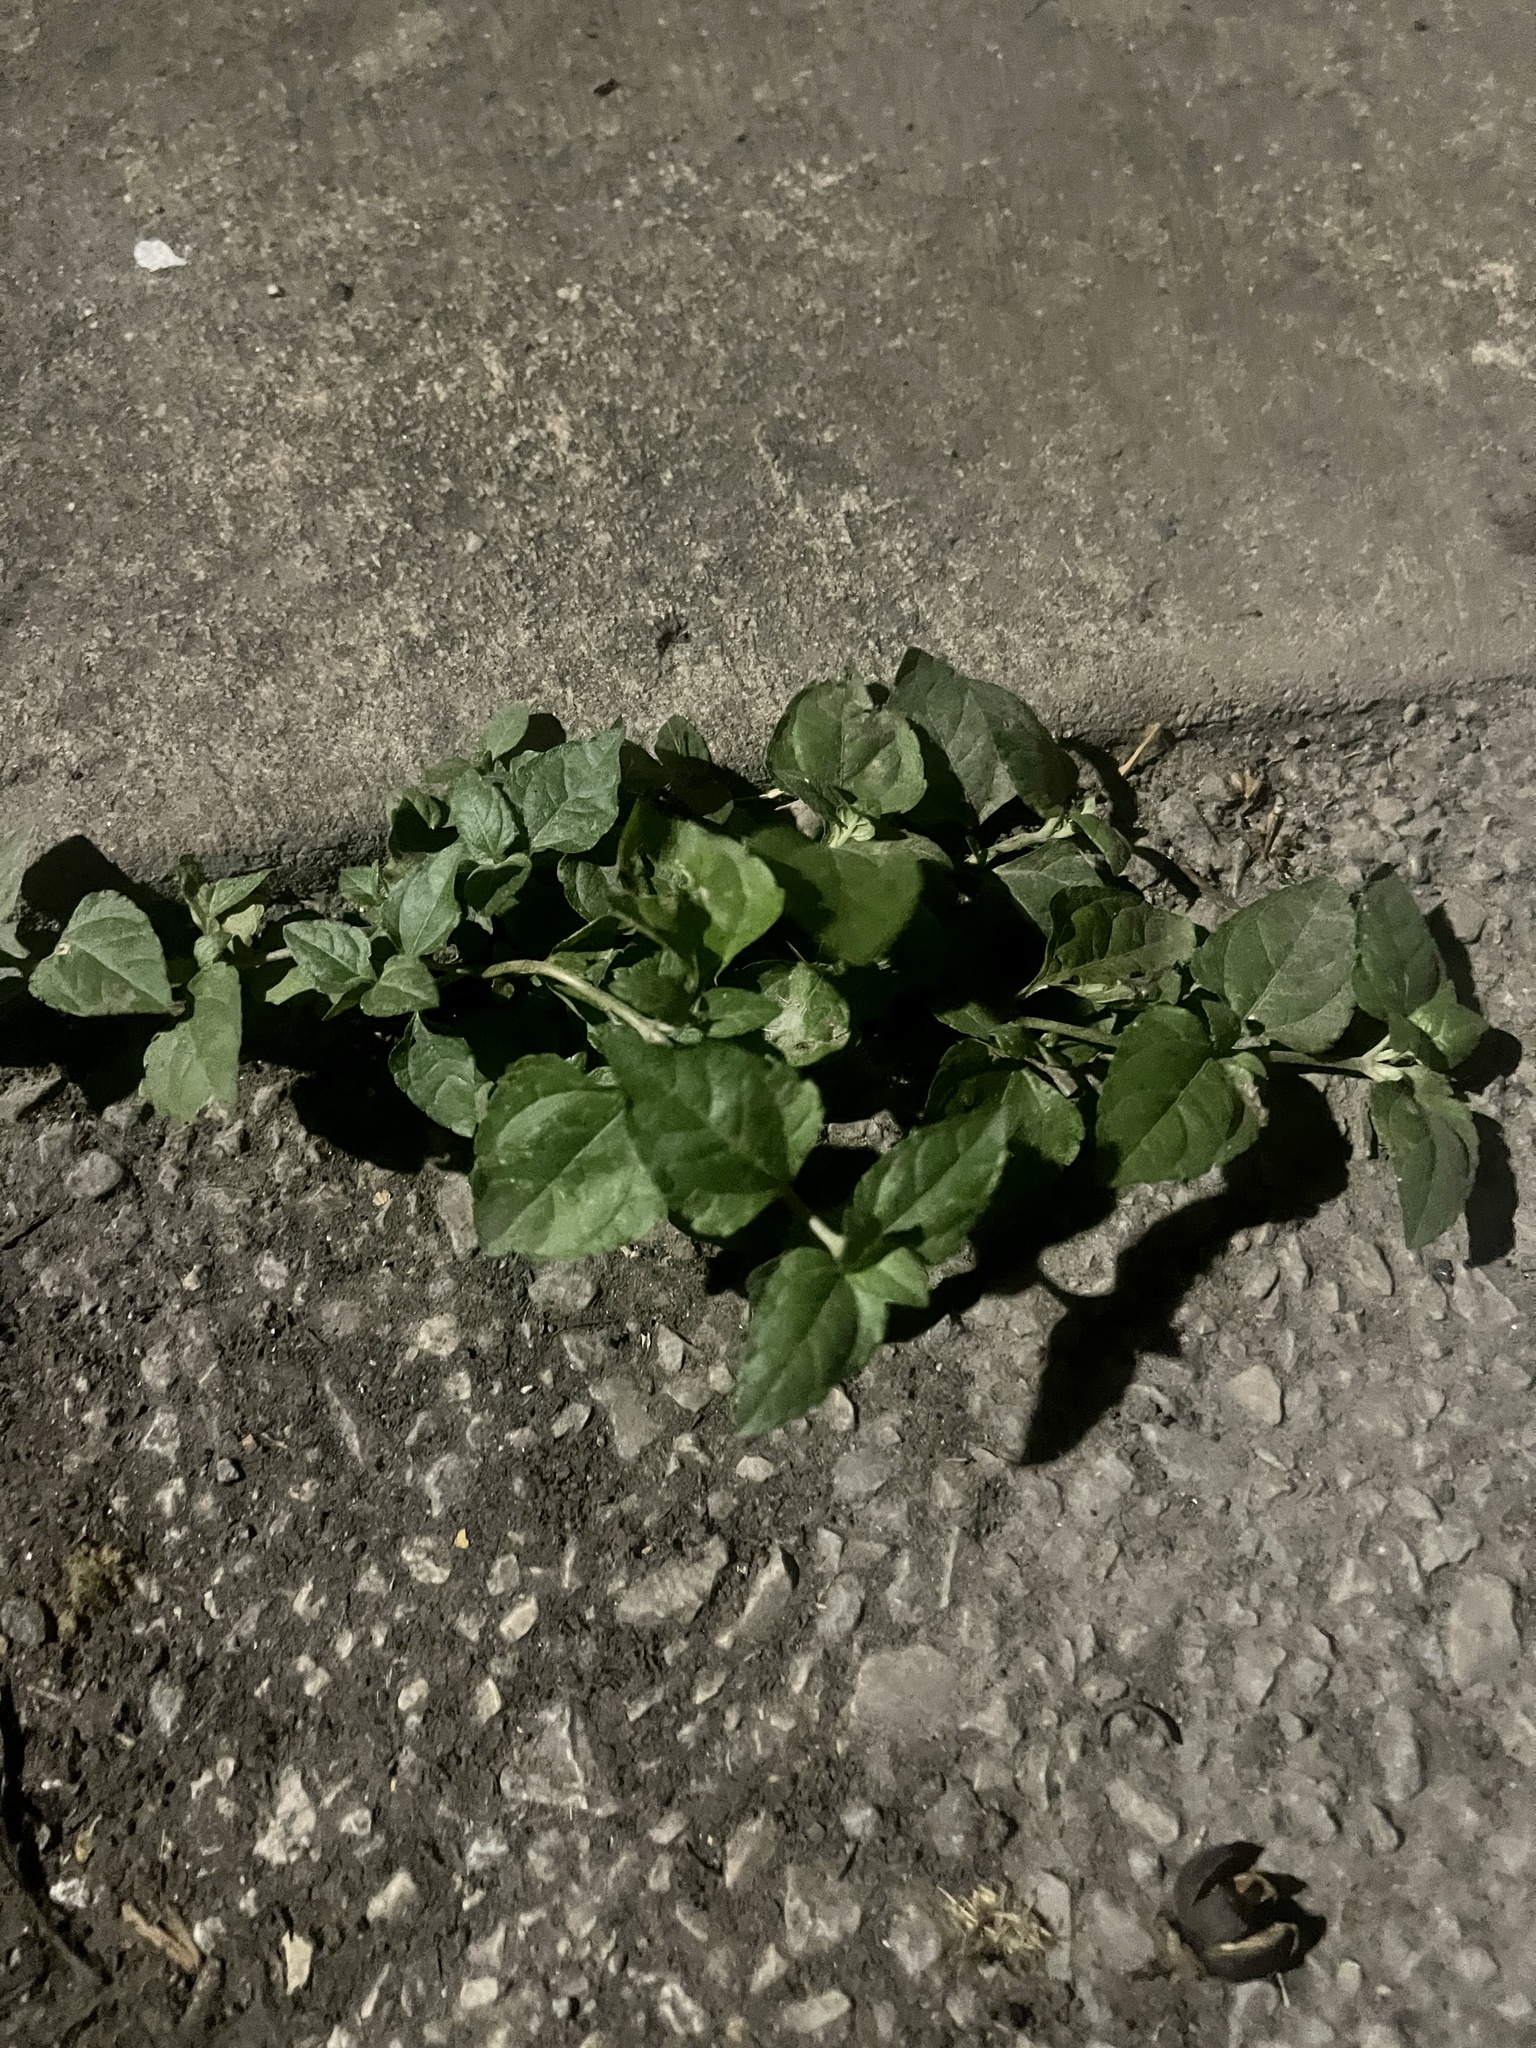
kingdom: Plantae
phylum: Tracheophyta
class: Magnoliopsida
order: Asterales
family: Asteraceae
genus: Calyptocarpus
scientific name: Calyptocarpus vialis
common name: Straggler daisy
